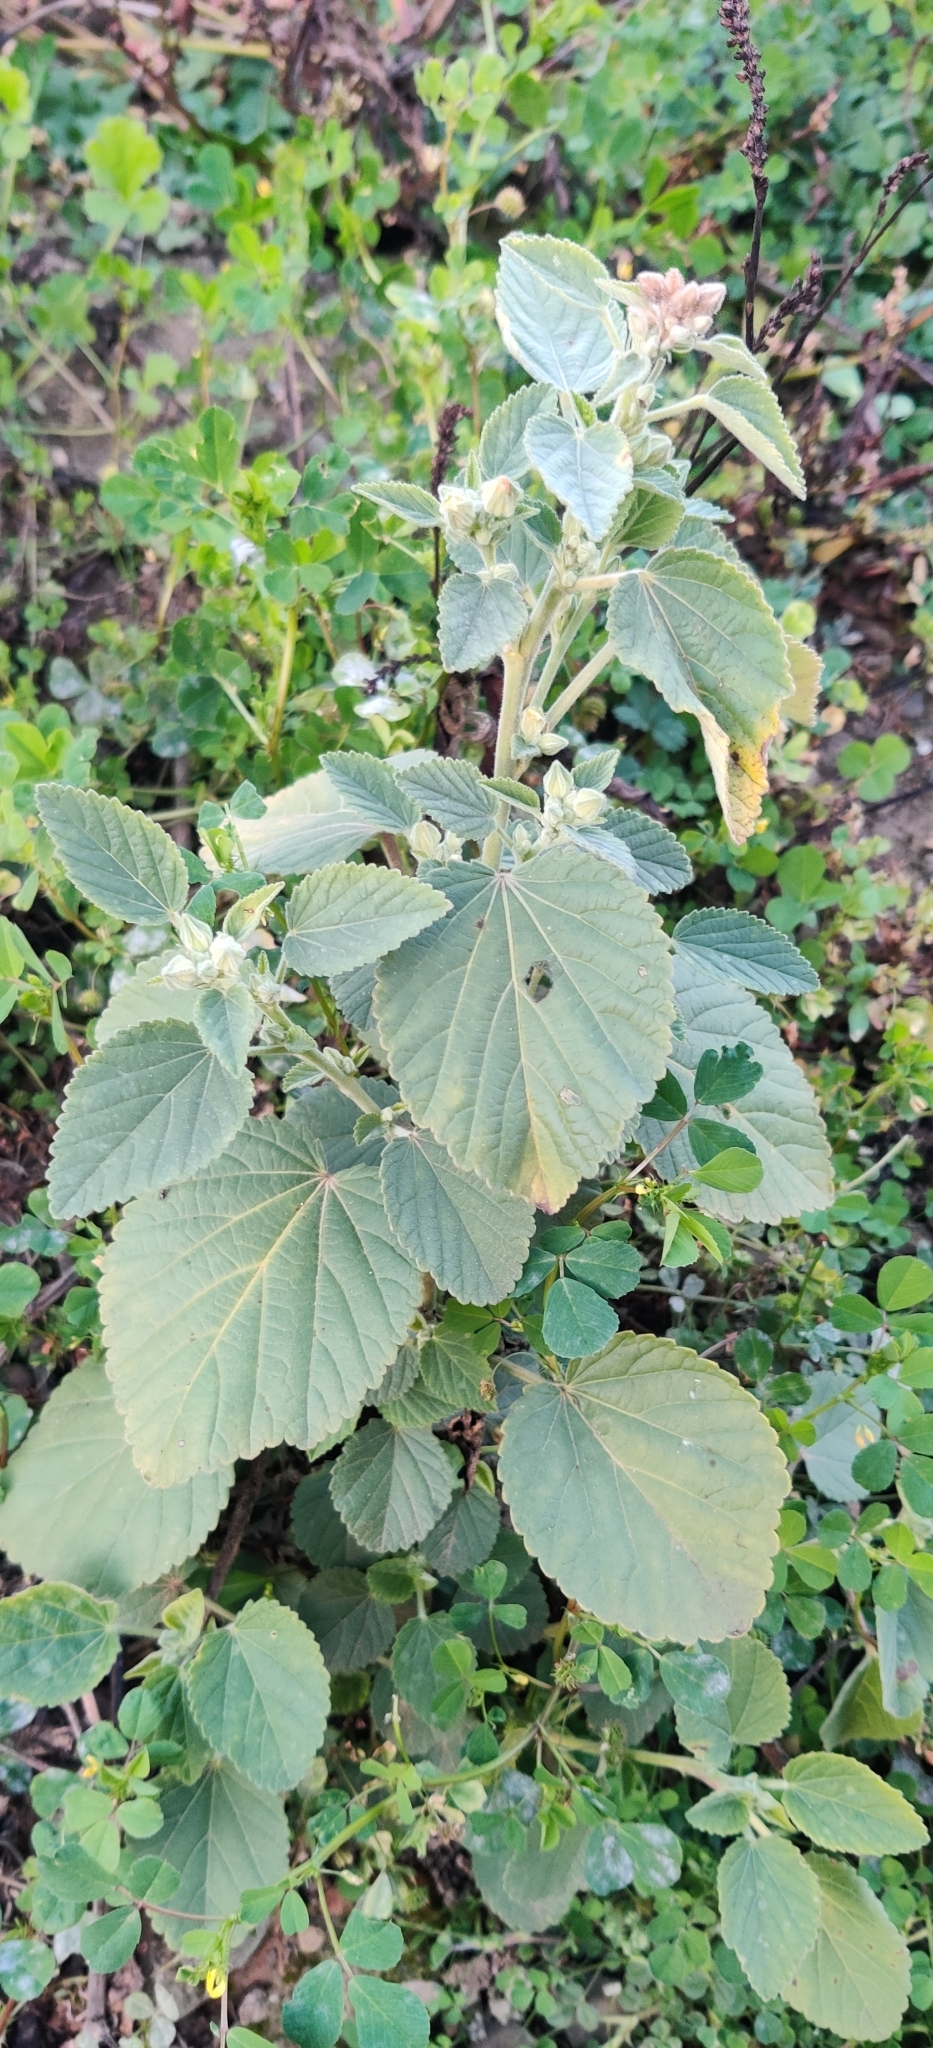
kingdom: Plantae
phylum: Tracheophyta
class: Magnoliopsida
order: Malvales
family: Malvaceae
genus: Sida
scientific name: Sida cordifolia
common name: Ilima
